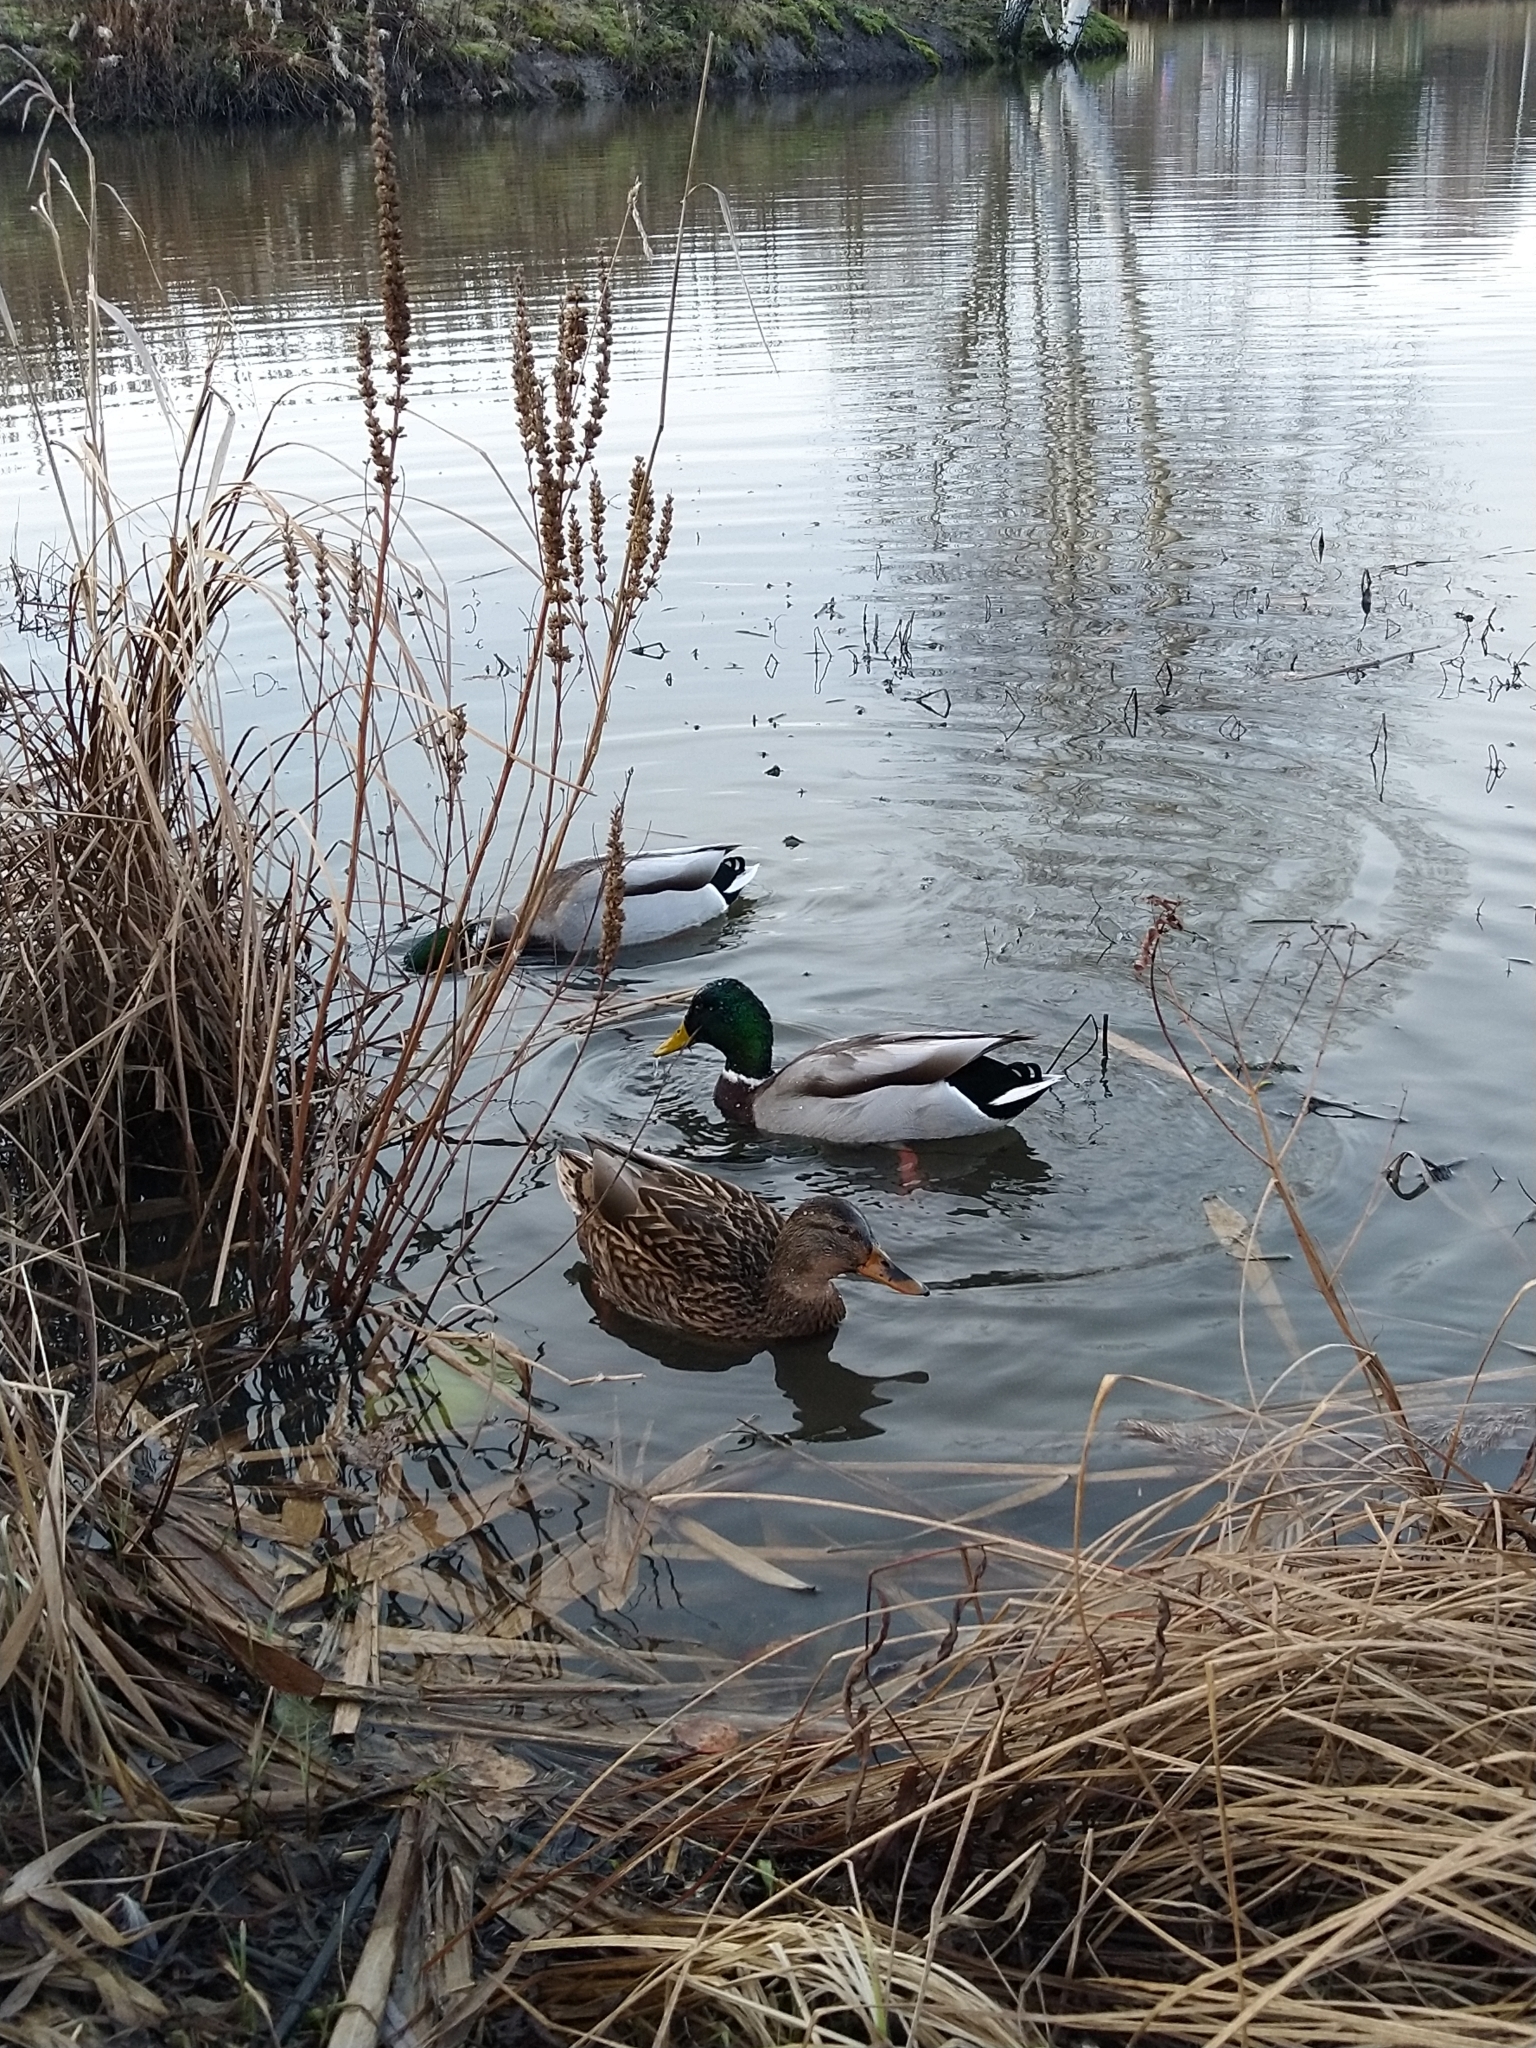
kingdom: Animalia
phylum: Chordata
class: Aves
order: Anseriformes
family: Anatidae
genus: Anas
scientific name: Anas platyrhynchos
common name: Mallard
